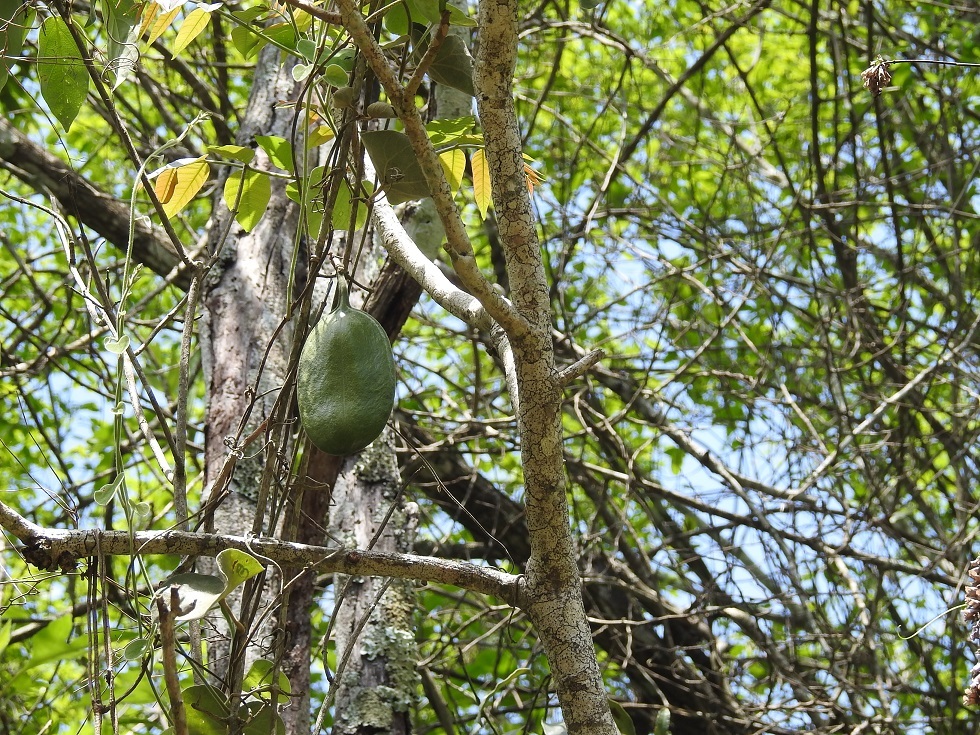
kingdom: Plantae
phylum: Tracheophyta
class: Magnoliopsida
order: Lamiales
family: Bignoniaceae
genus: Anemopaegma
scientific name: Anemopaegma puberulum
